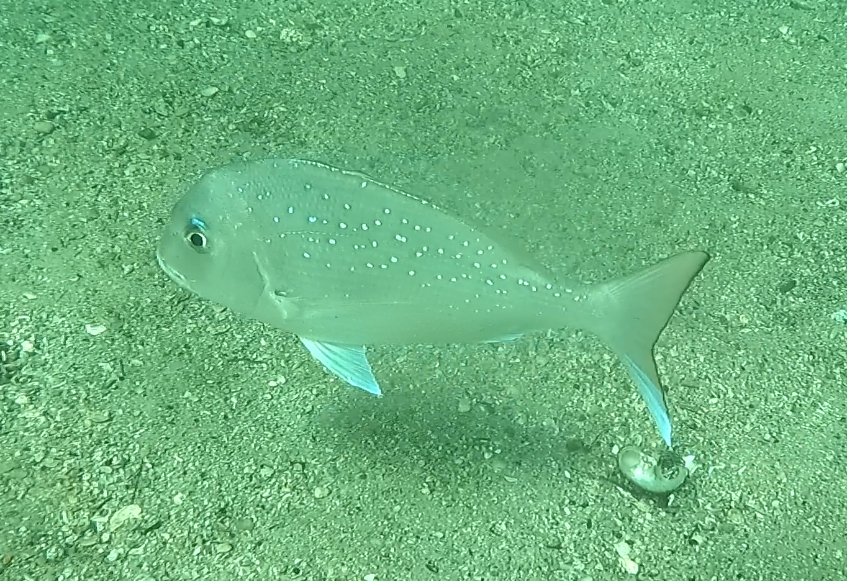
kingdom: Animalia
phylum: Chordata
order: Perciformes
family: Sparidae
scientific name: Sparidae
